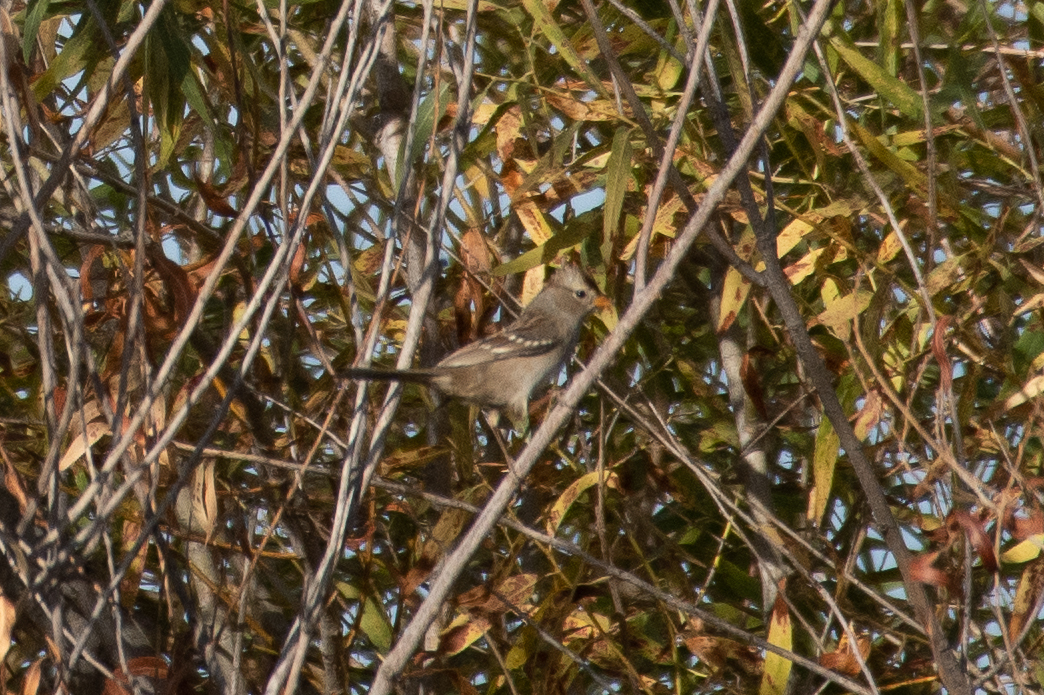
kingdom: Animalia
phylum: Chordata
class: Aves
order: Passeriformes
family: Passerellidae
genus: Zonotrichia
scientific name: Zonotrichia leucophrys
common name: White-crowned sparrow
